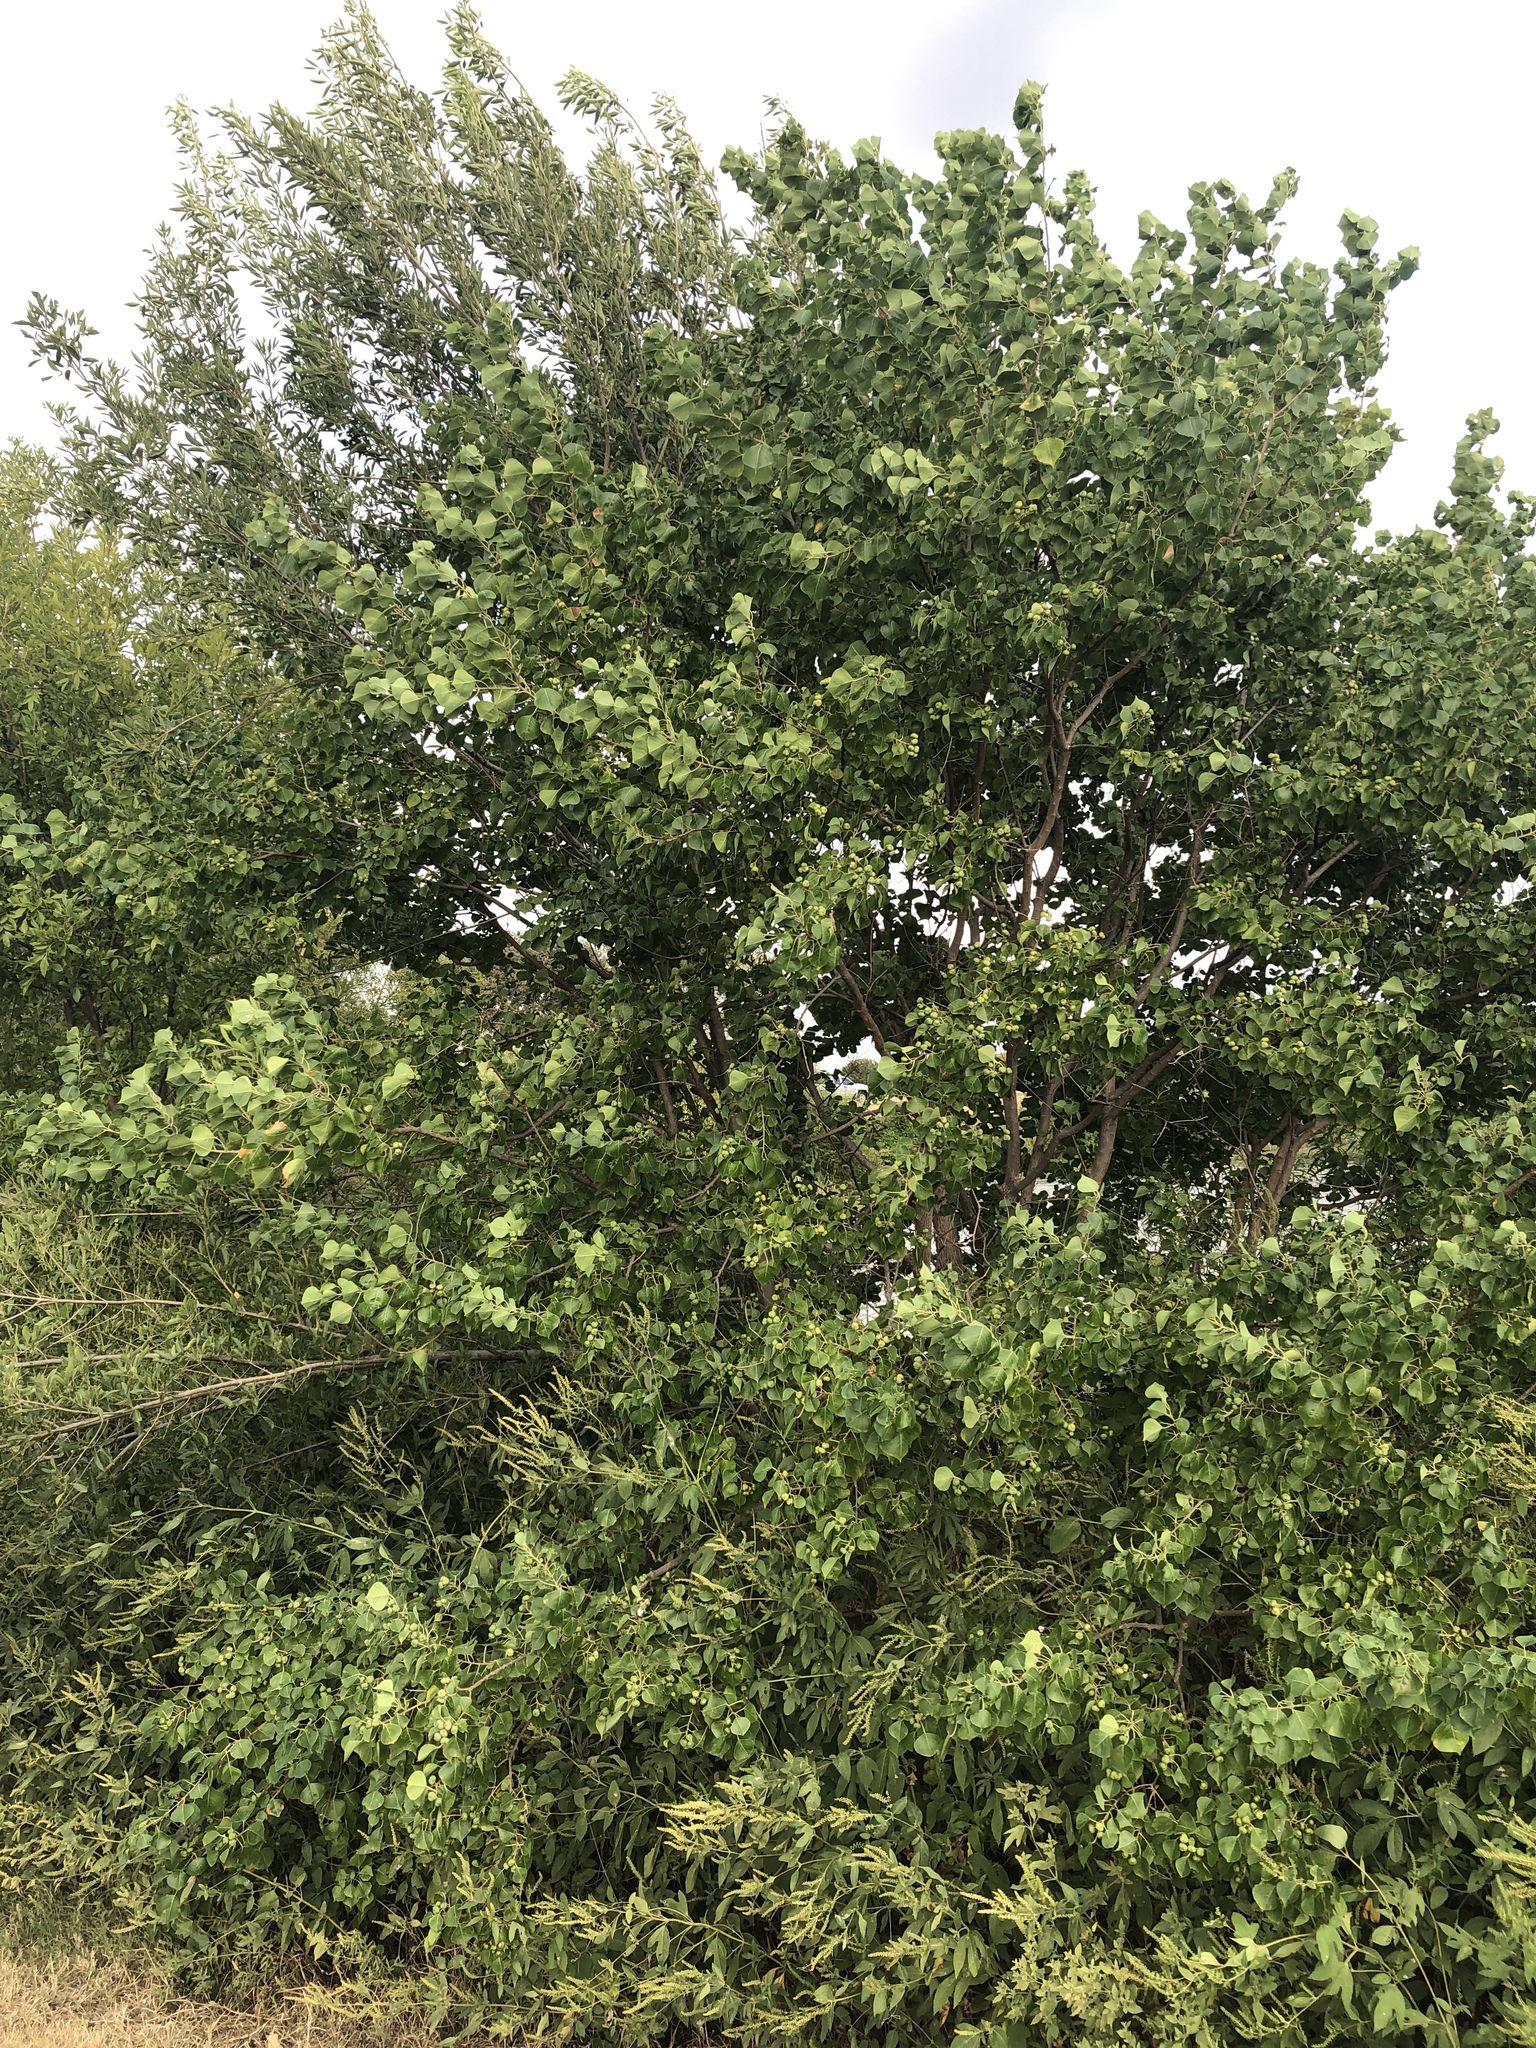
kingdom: Plantae
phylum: Tracheophyta
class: Magnoliopsida
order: Malpighiales
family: Euphorbiaceae
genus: Triadica
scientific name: Triadica sebifera
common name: Chinese tallow
